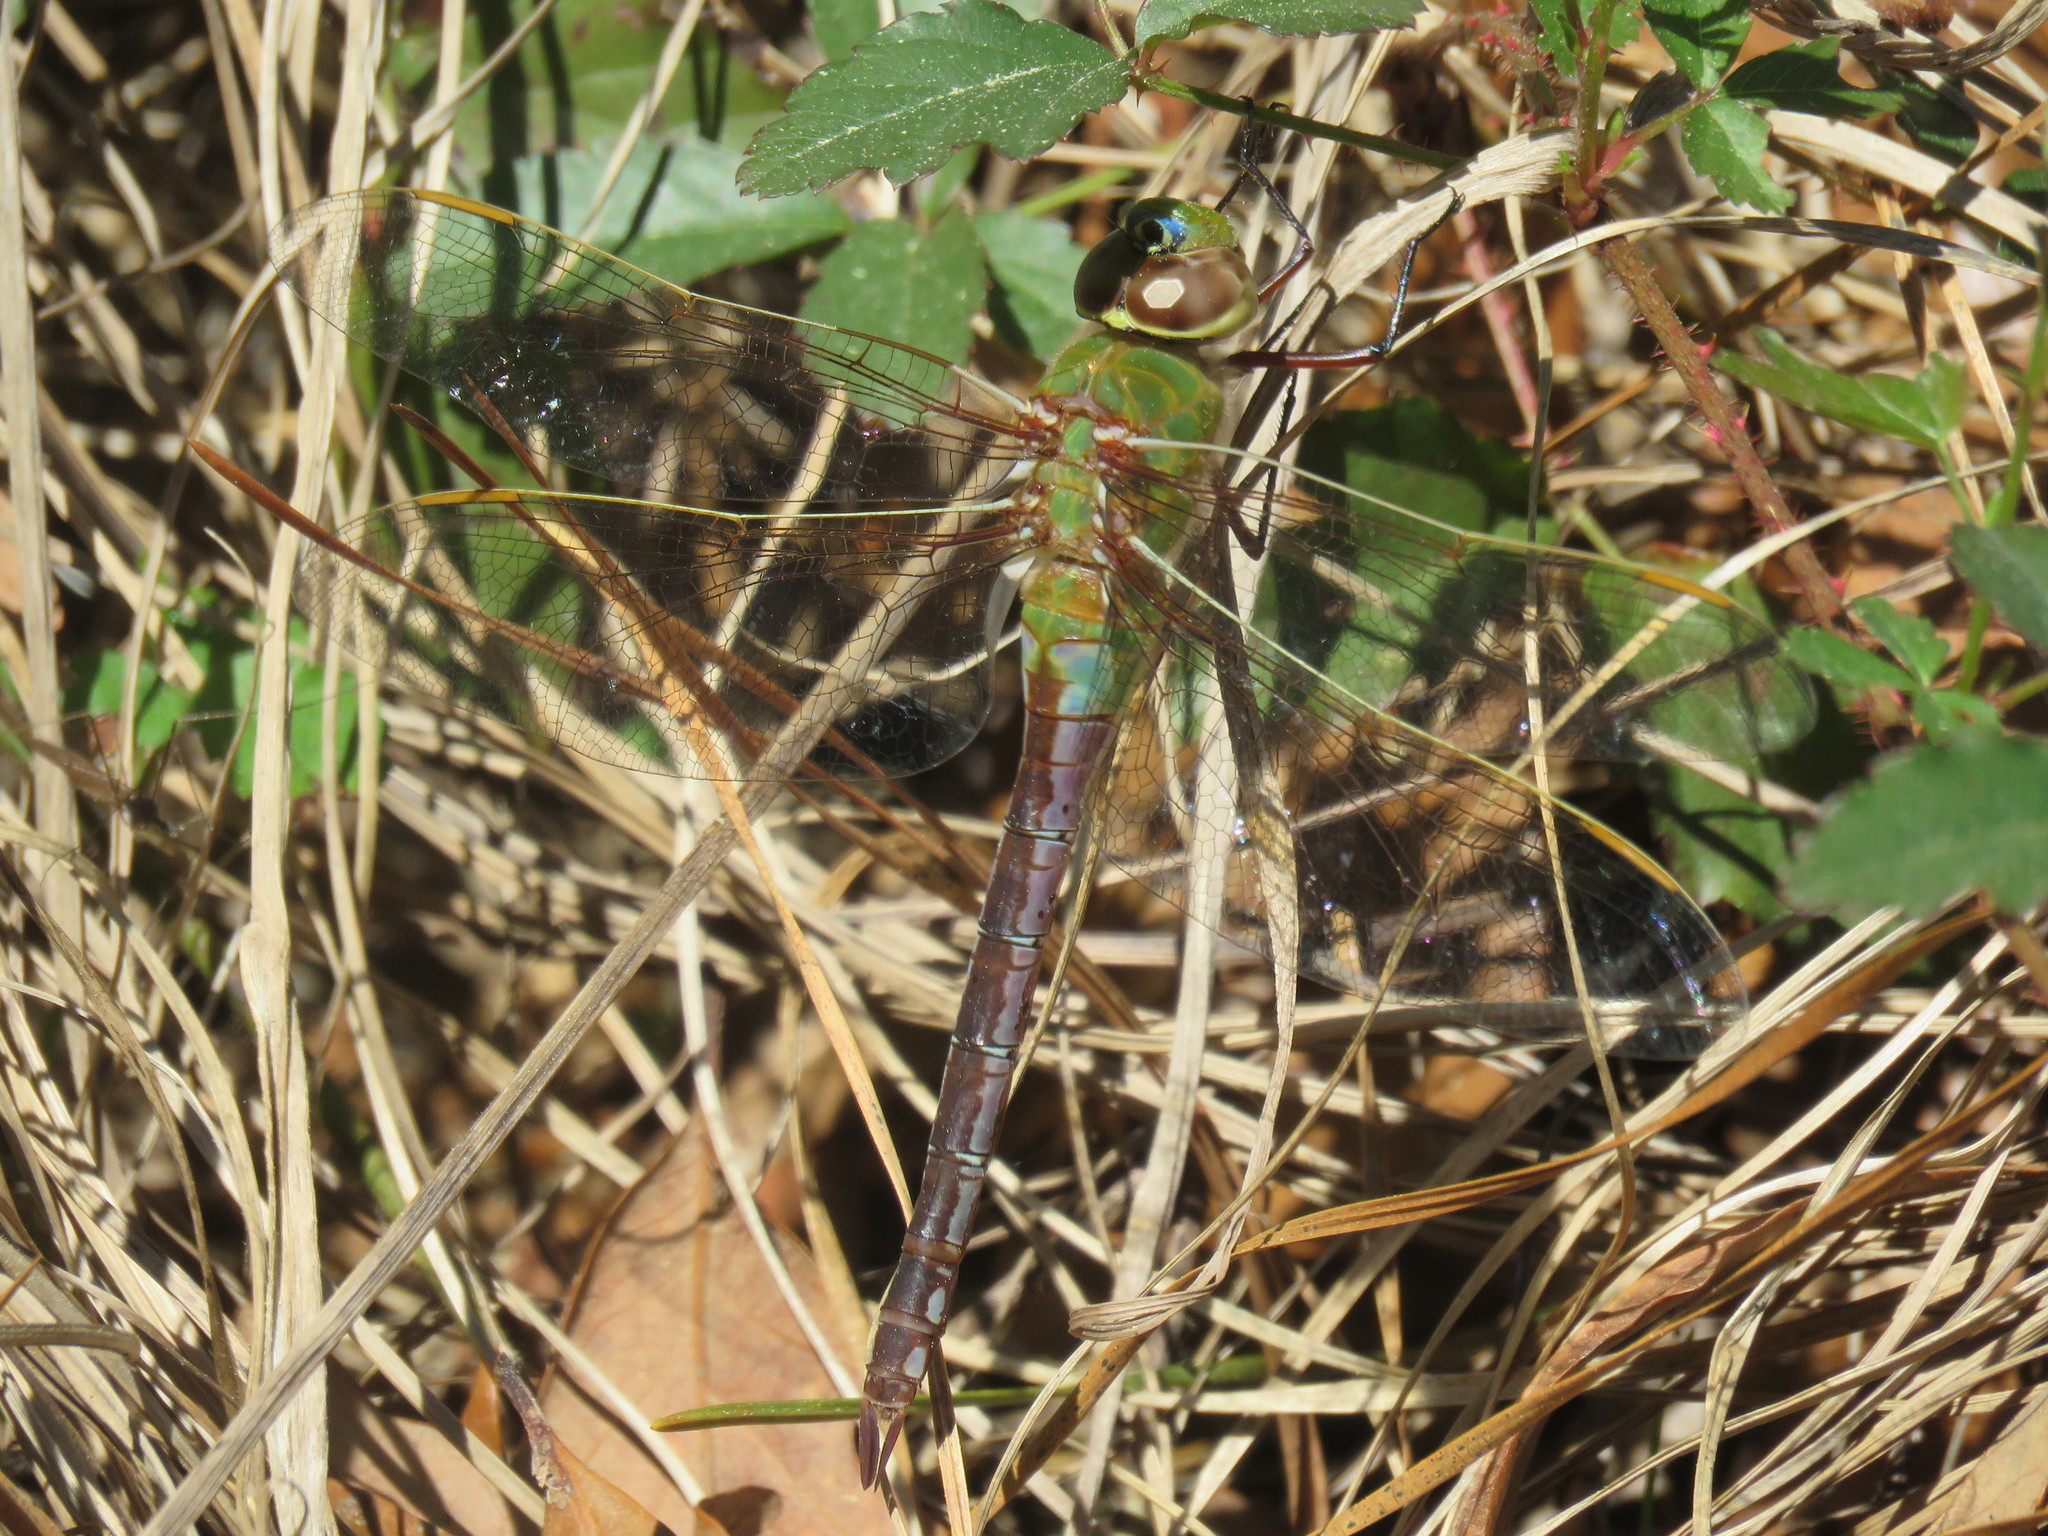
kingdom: Animalia
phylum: Arthropoda
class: Insecta
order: Odonata
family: Aeshnidae
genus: Anax
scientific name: Anax junius
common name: Common green darner
